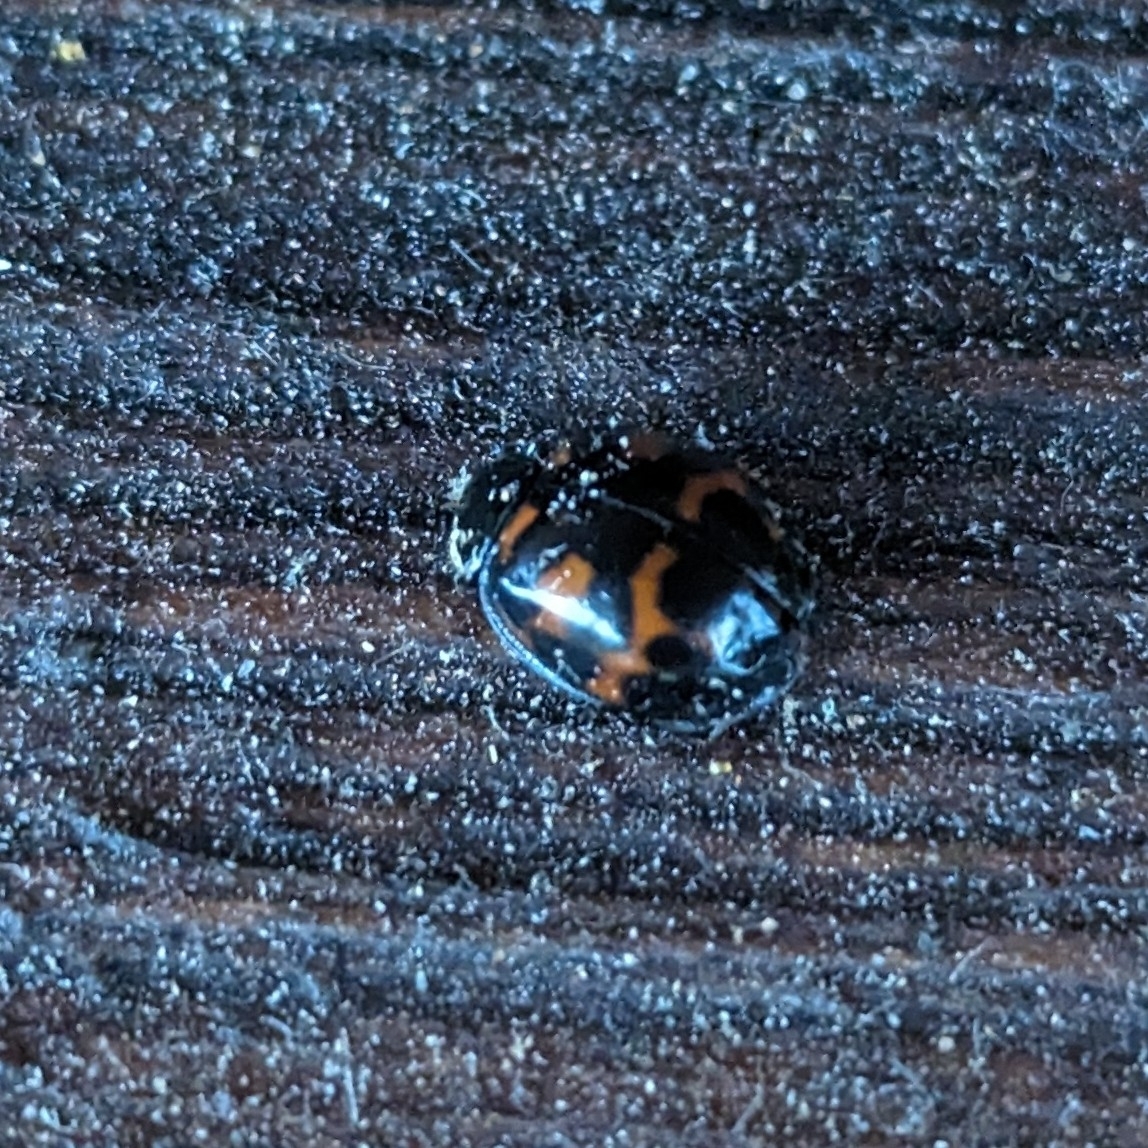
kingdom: Animalia
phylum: Arthropoda
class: Insecta
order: Coleoptera
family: Coccinellidae
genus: Harmonia
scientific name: Harmonia axyridis
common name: Harlequin ladybird
